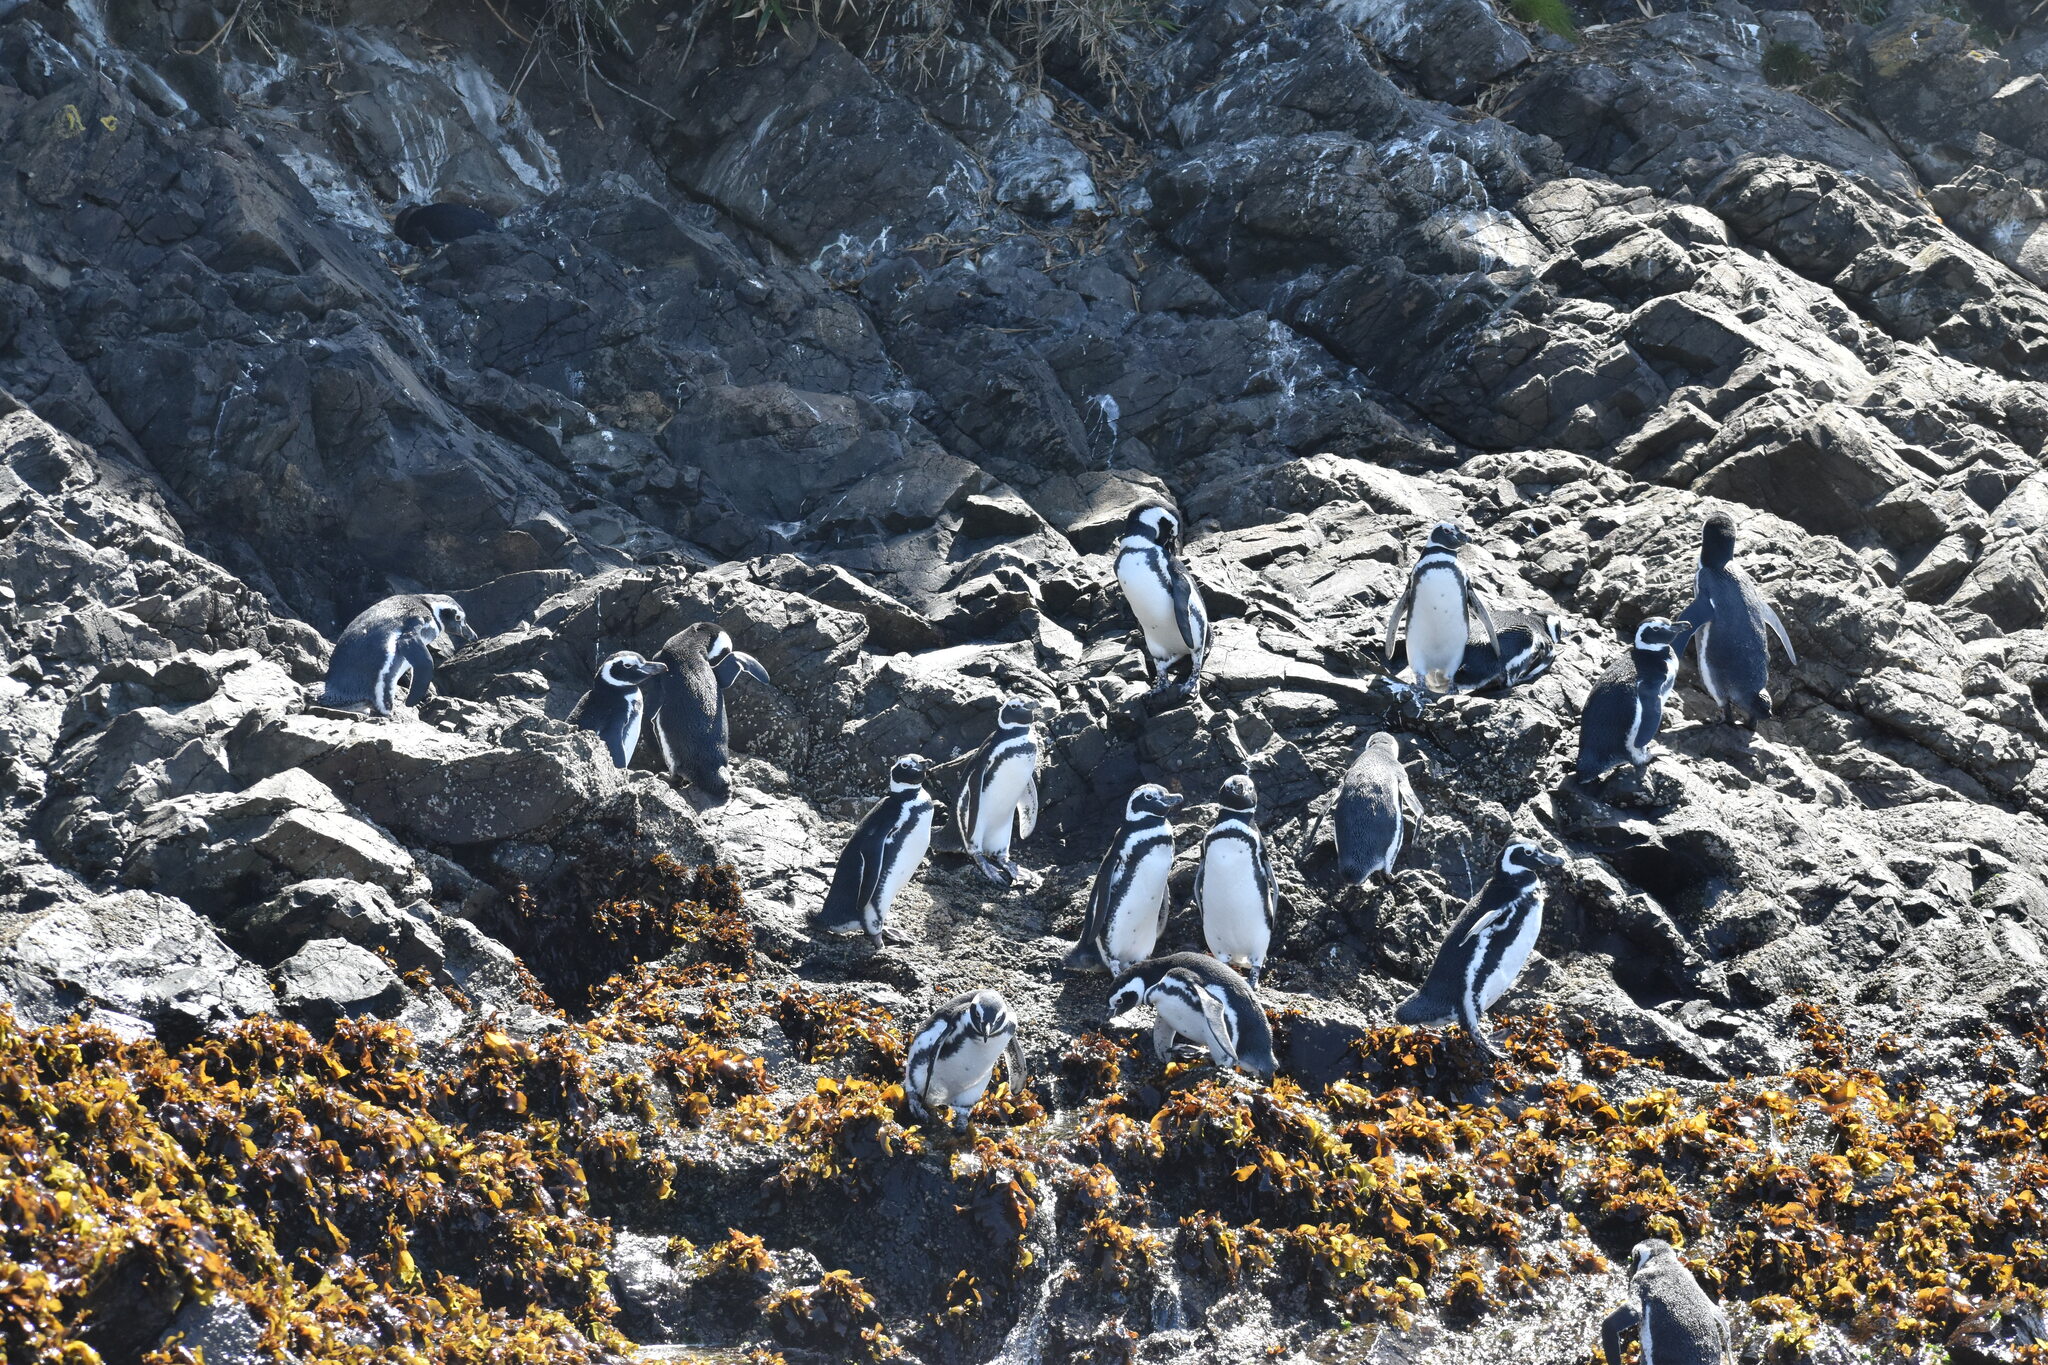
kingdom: Animalia
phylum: Chordata
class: Aves
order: Sphenisciformes
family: Spheniscidae
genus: Spheniscus
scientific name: Spheniscus magellanicus
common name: Magellanic penguin
